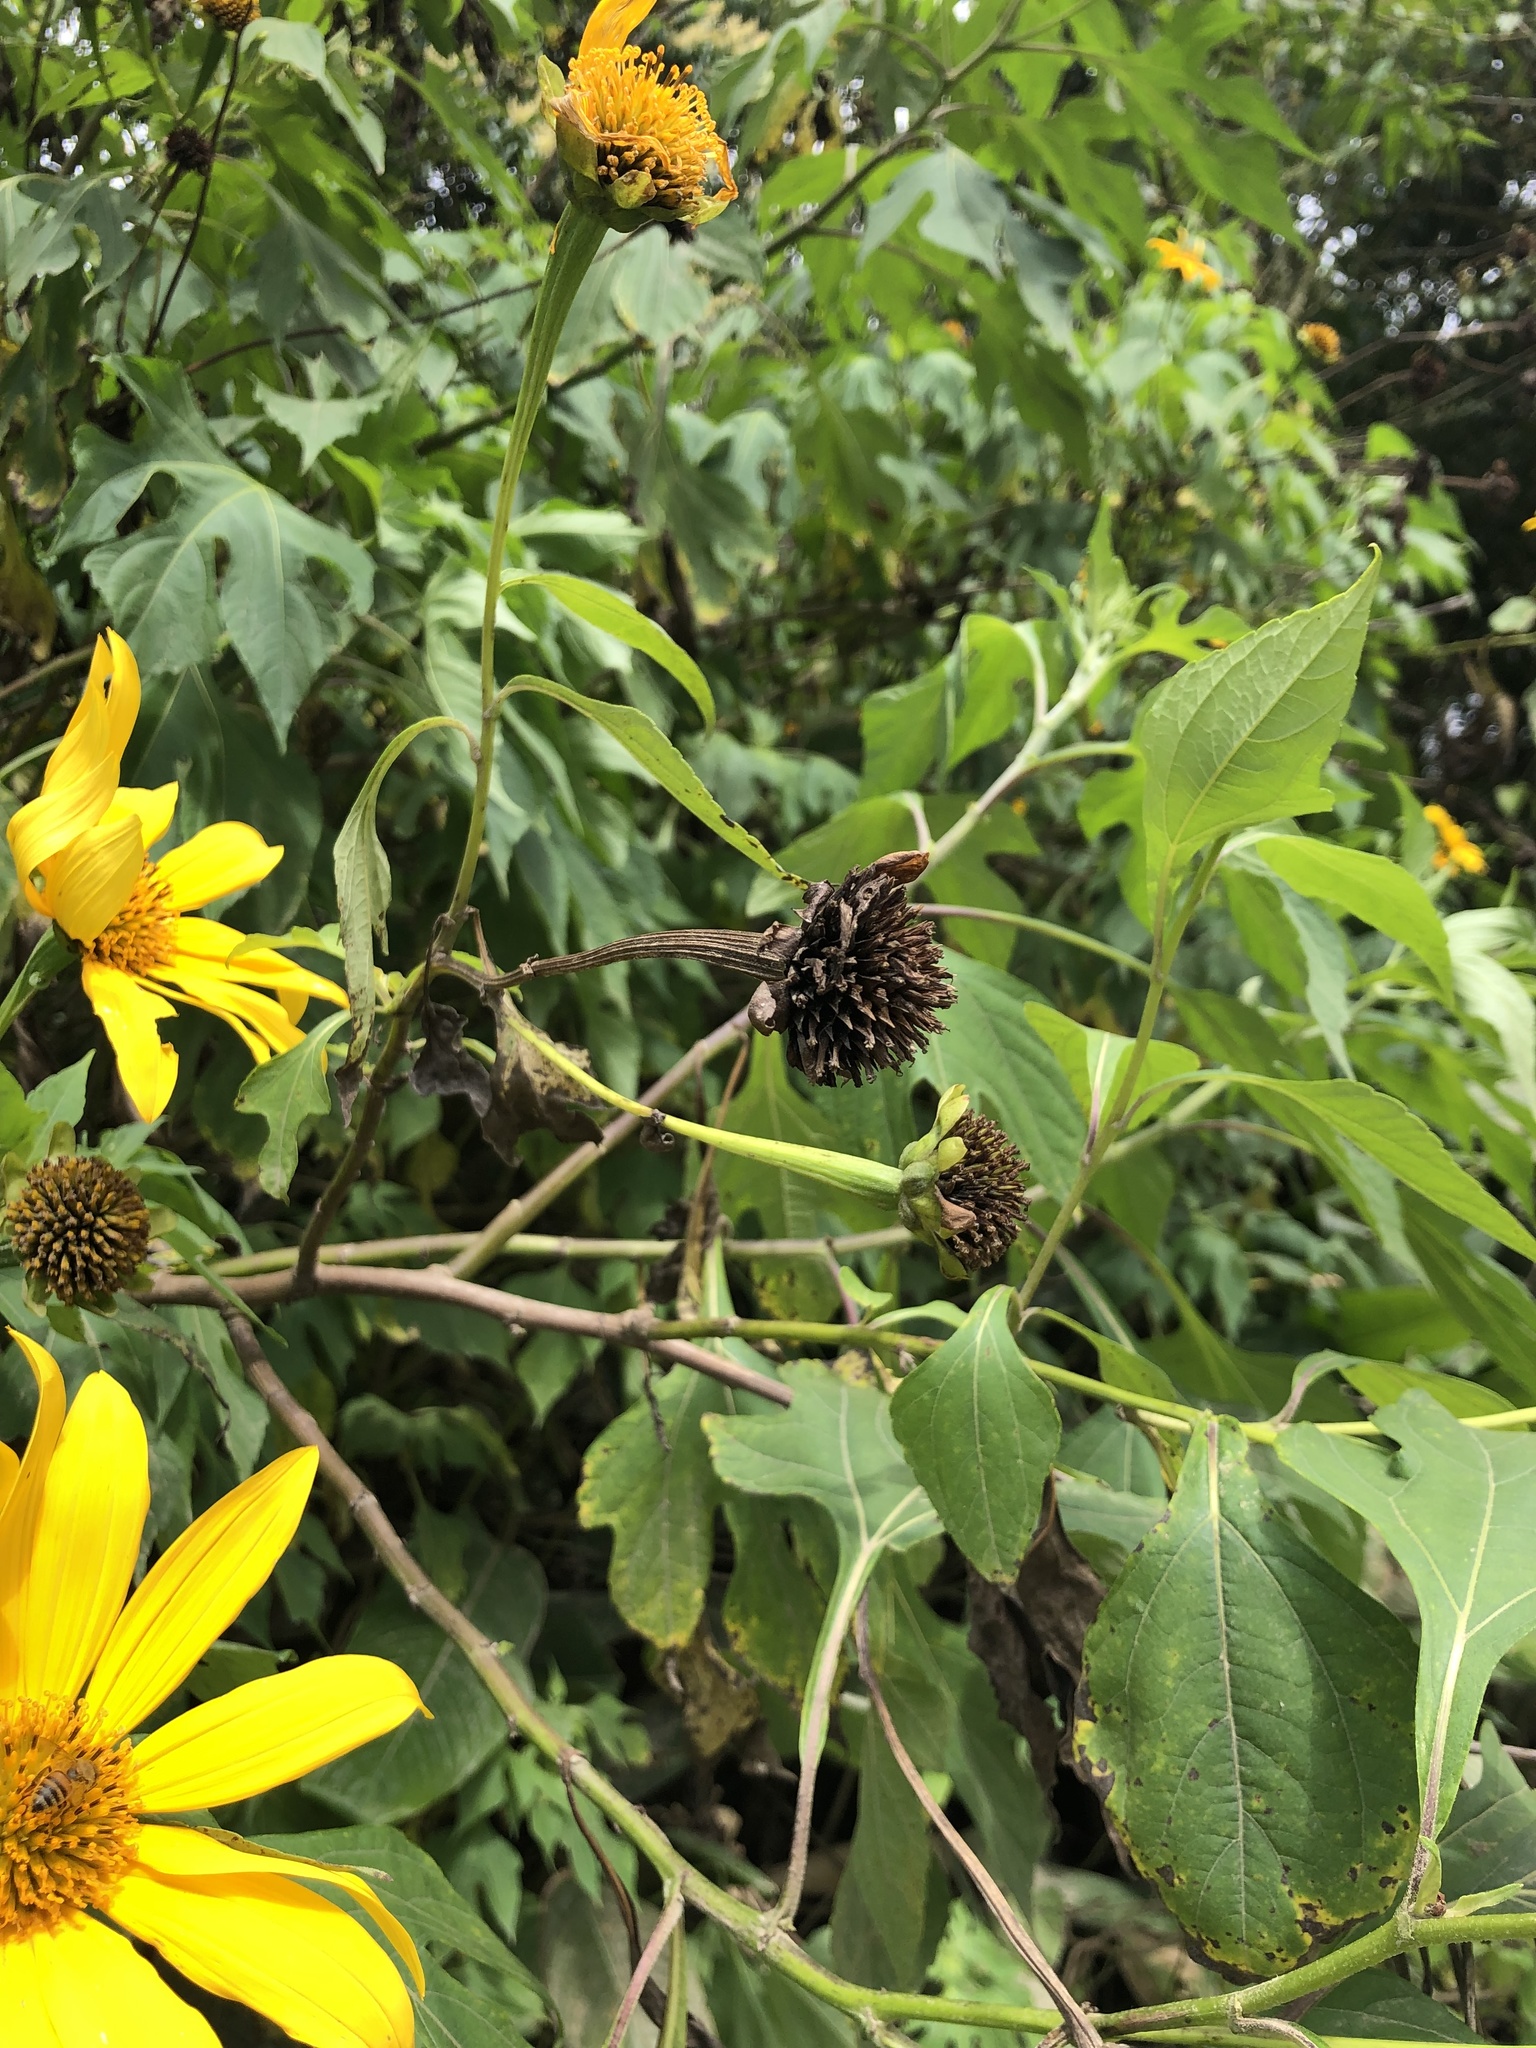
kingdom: Plantae
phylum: Tracheophyta
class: Magnoliopsida
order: Asterales
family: Asteraceae
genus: Tithonia
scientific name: Tithonia diversifolia
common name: Tree marigold
